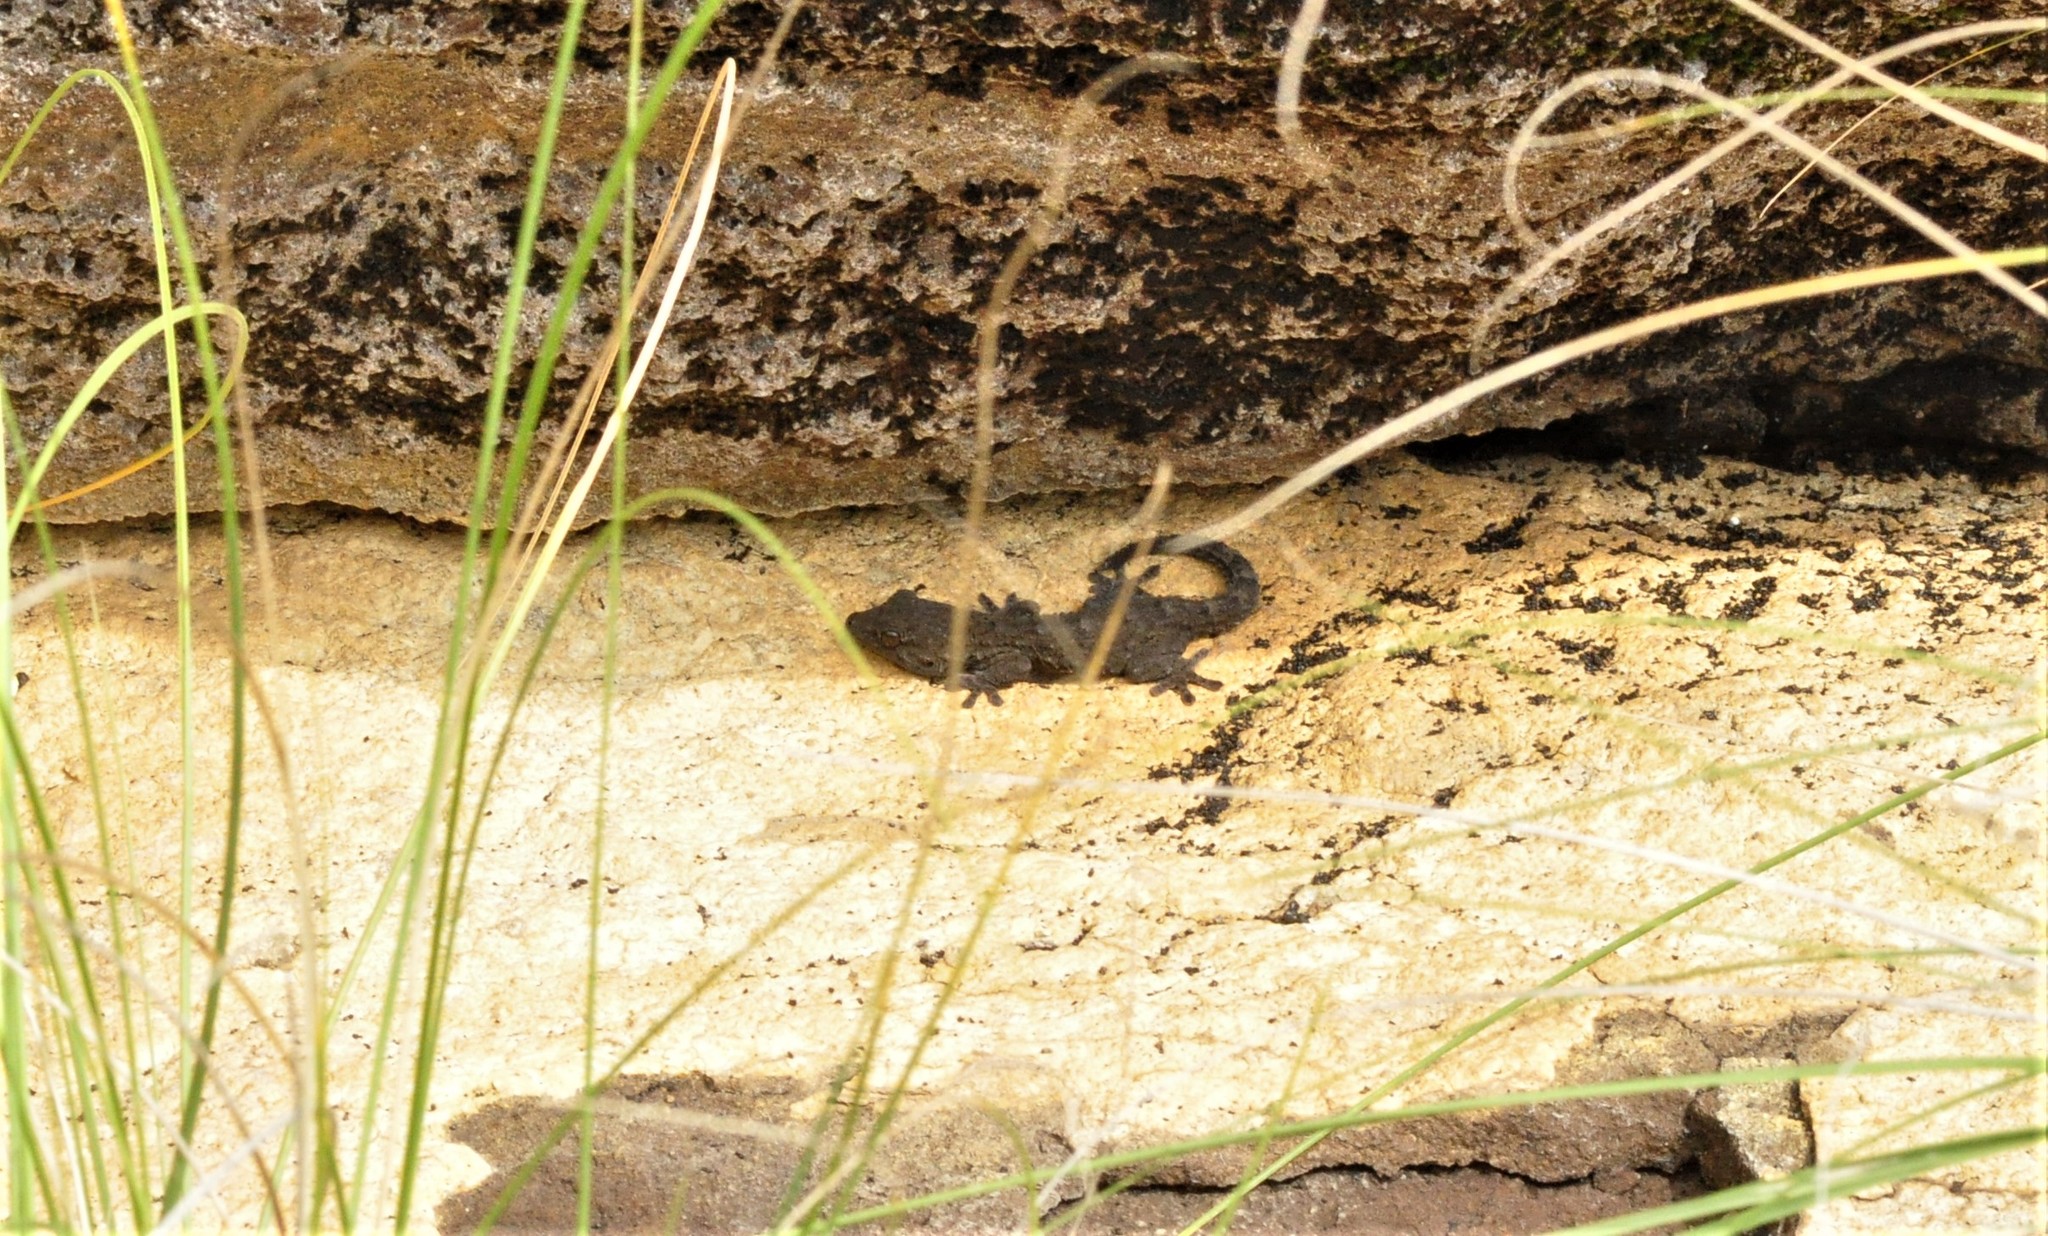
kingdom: Animalia
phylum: Chordata
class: Squamata
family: Phyllodactylidae
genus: Tarentola
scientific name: Tarentola delalandii
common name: Tenerife wall gecko
